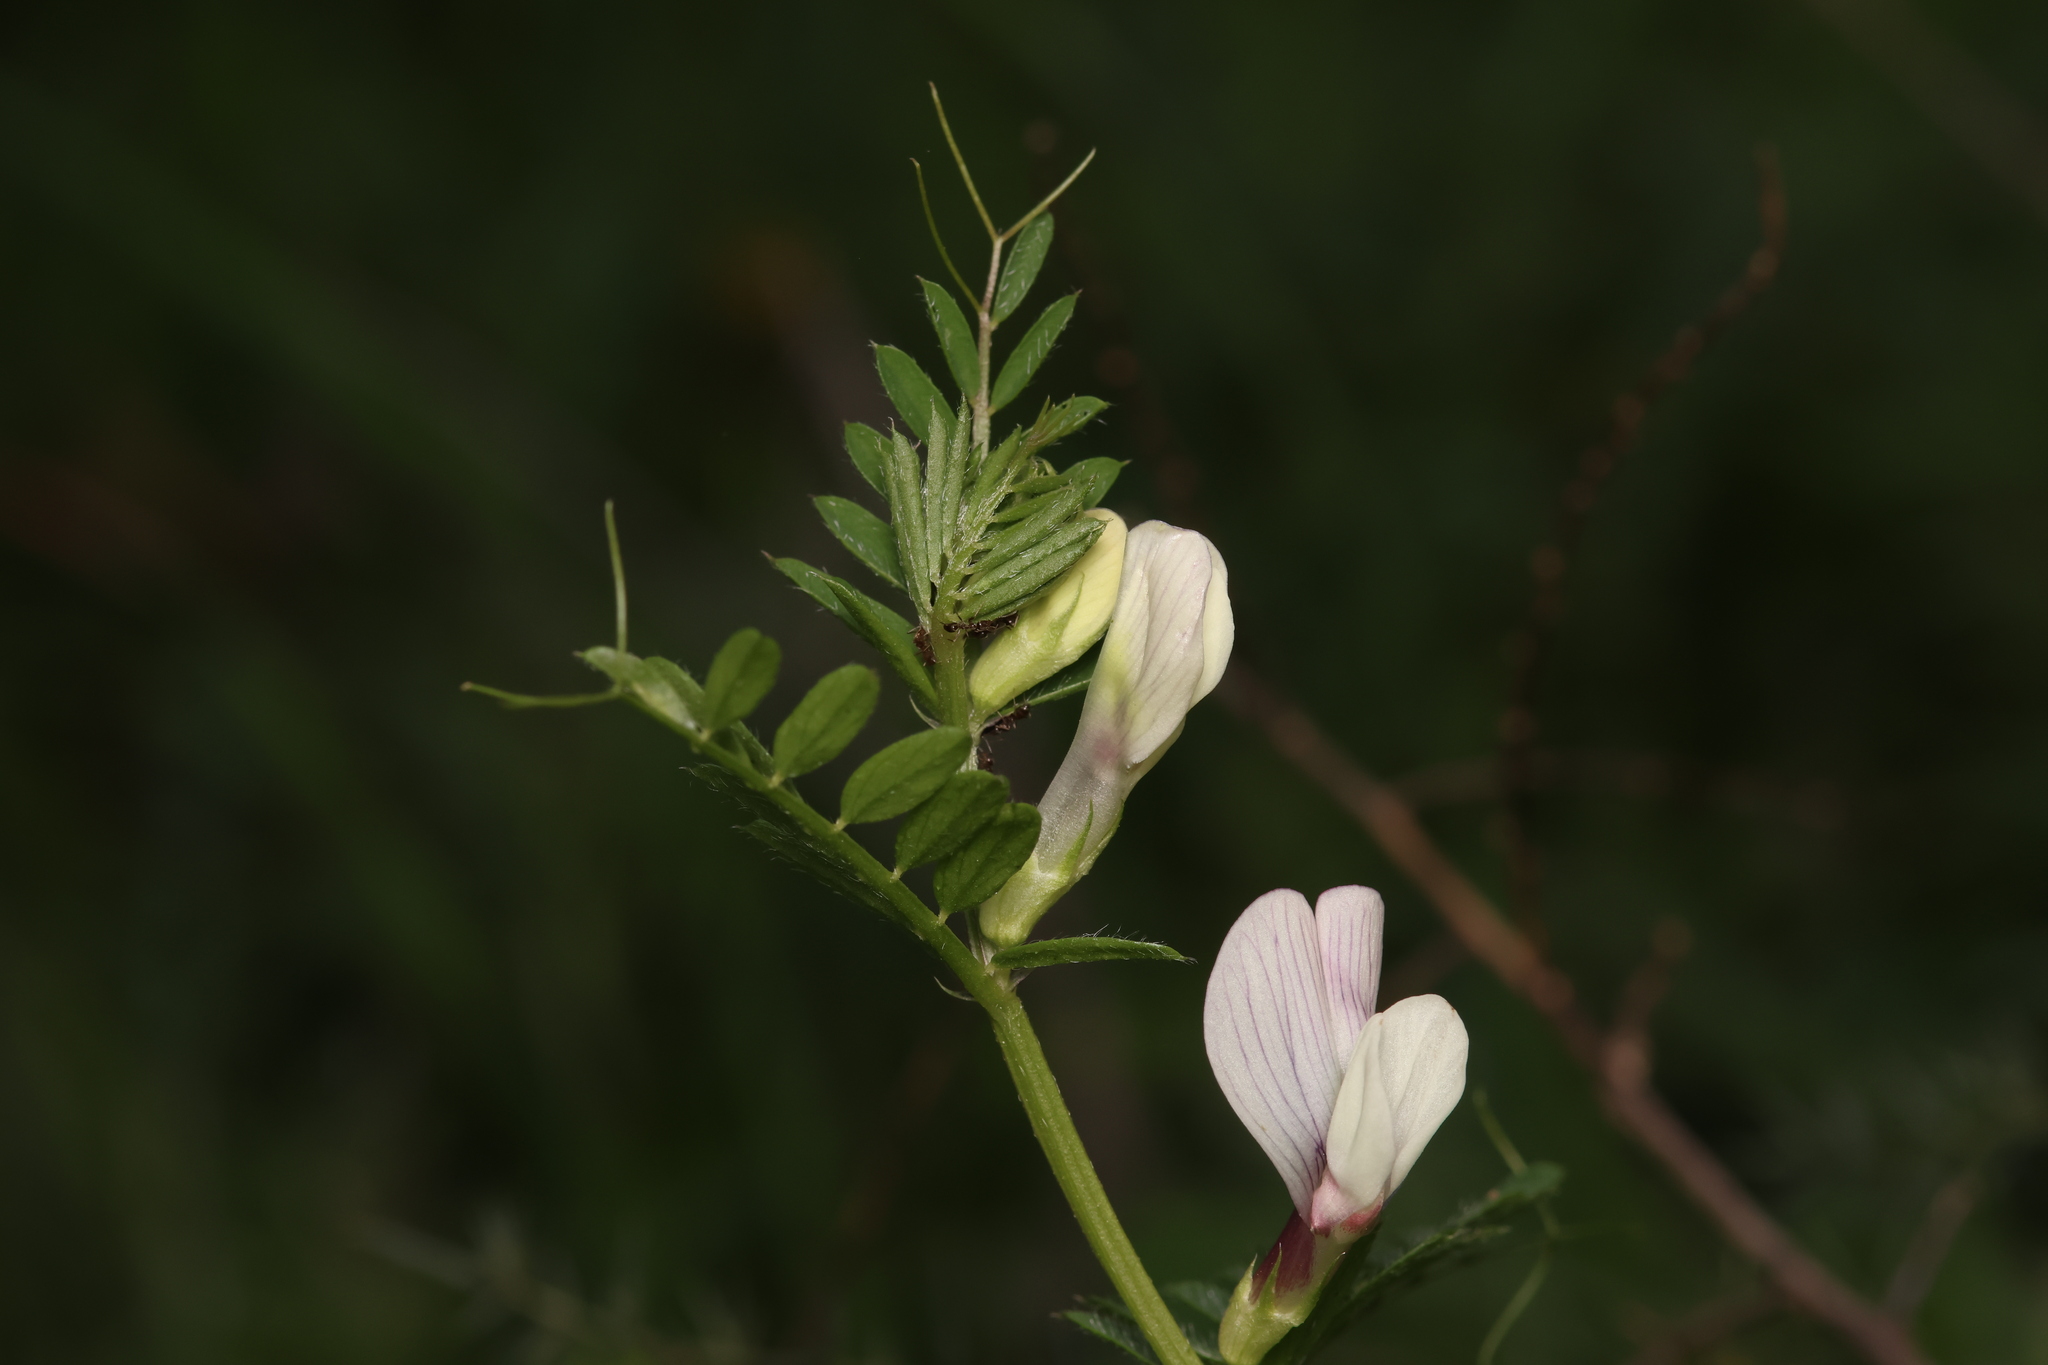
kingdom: Plantae
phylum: Tracheophyta
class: Magnoliopsida
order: Fabales
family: Fabaceae
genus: Vicia
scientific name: Vicia lutea
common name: Smooth yellow vetch
